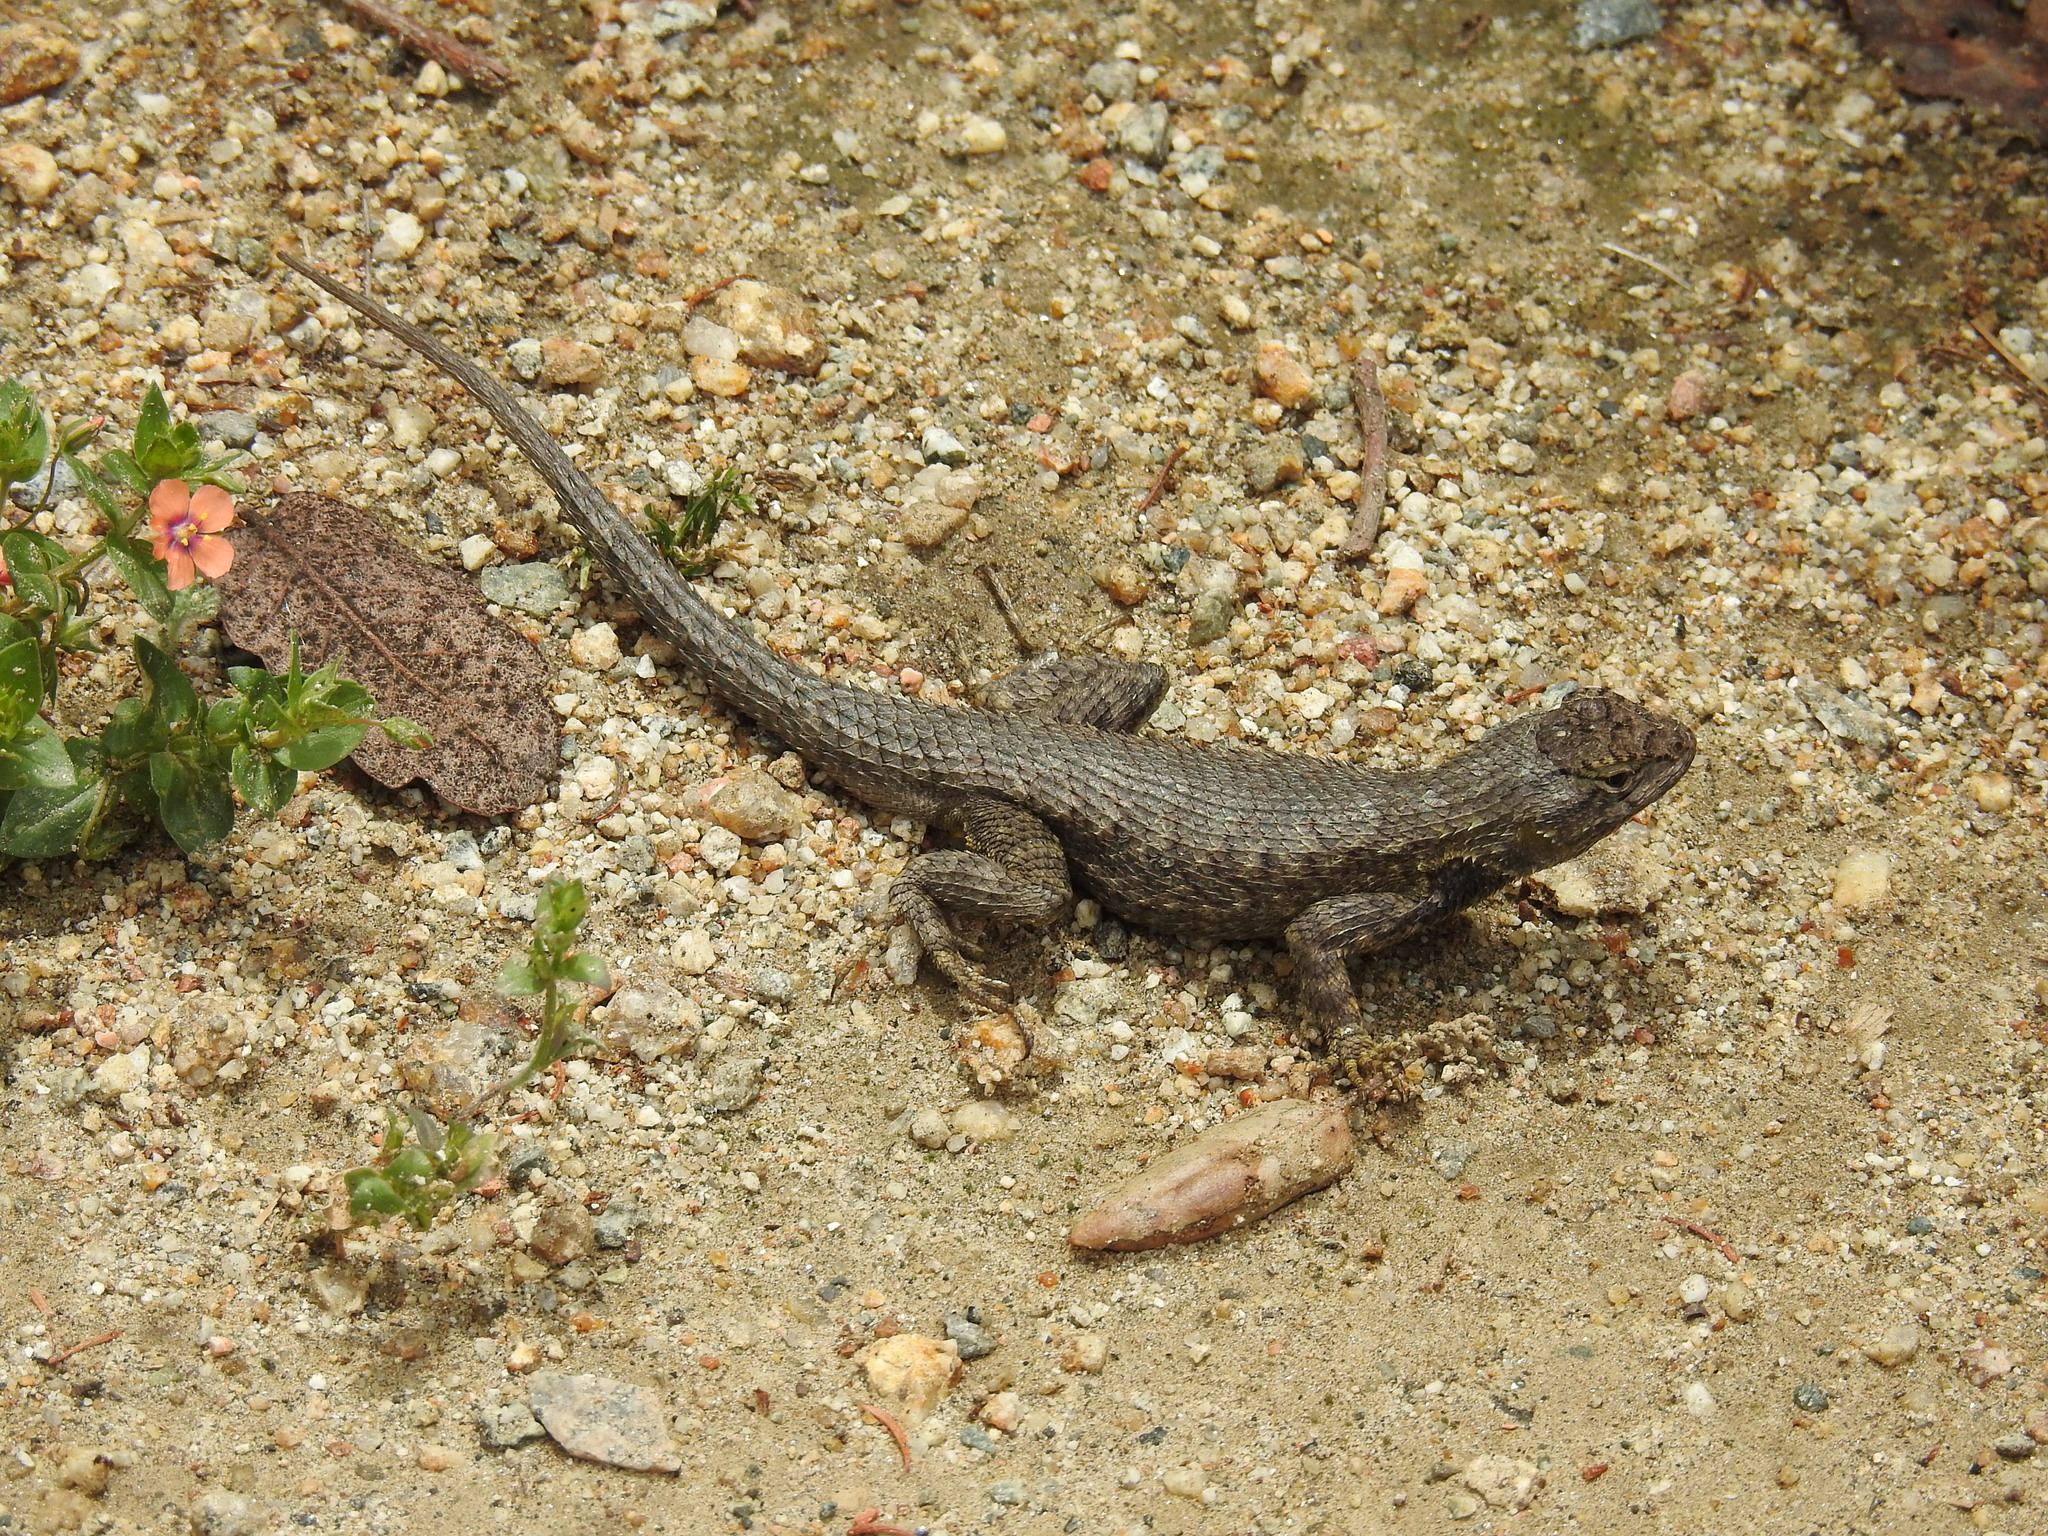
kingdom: Animalia
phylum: Chordata
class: Squamata
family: Phrynosomatidae
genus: Sceloporus
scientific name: Sceloporus occidentalis
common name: Western fence lizard
